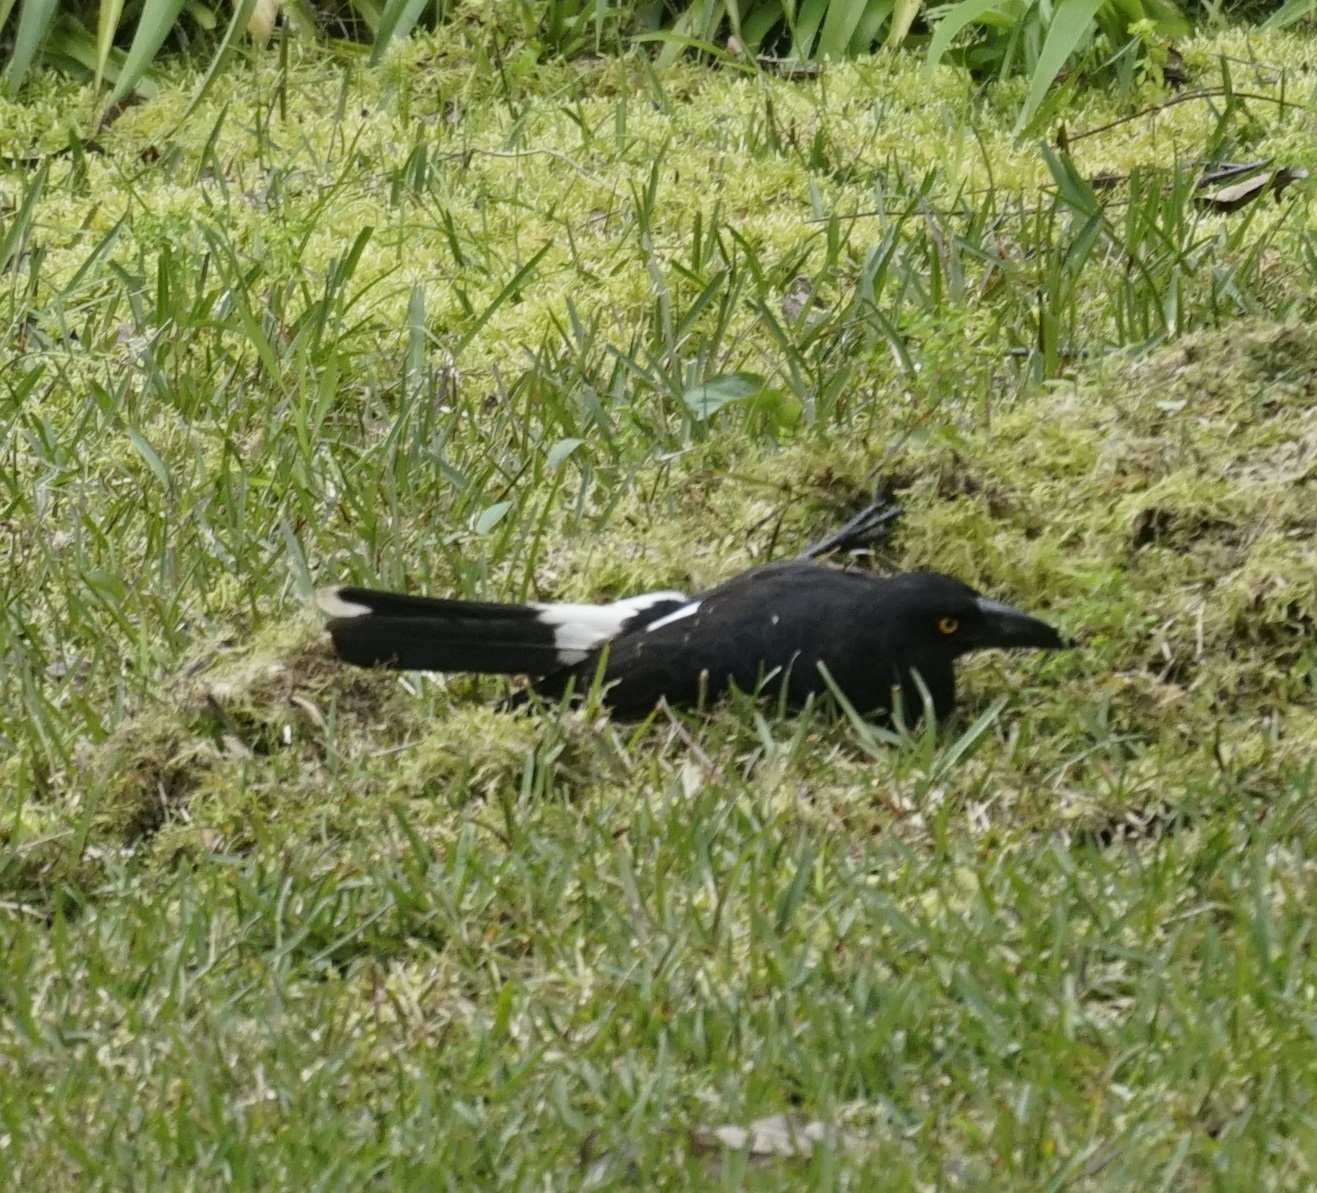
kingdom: Animalia
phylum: Chordata
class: Aves
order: Passeriformes
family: Cracticidae
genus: Strepera
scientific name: Strepera graculina
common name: Pied currawong
